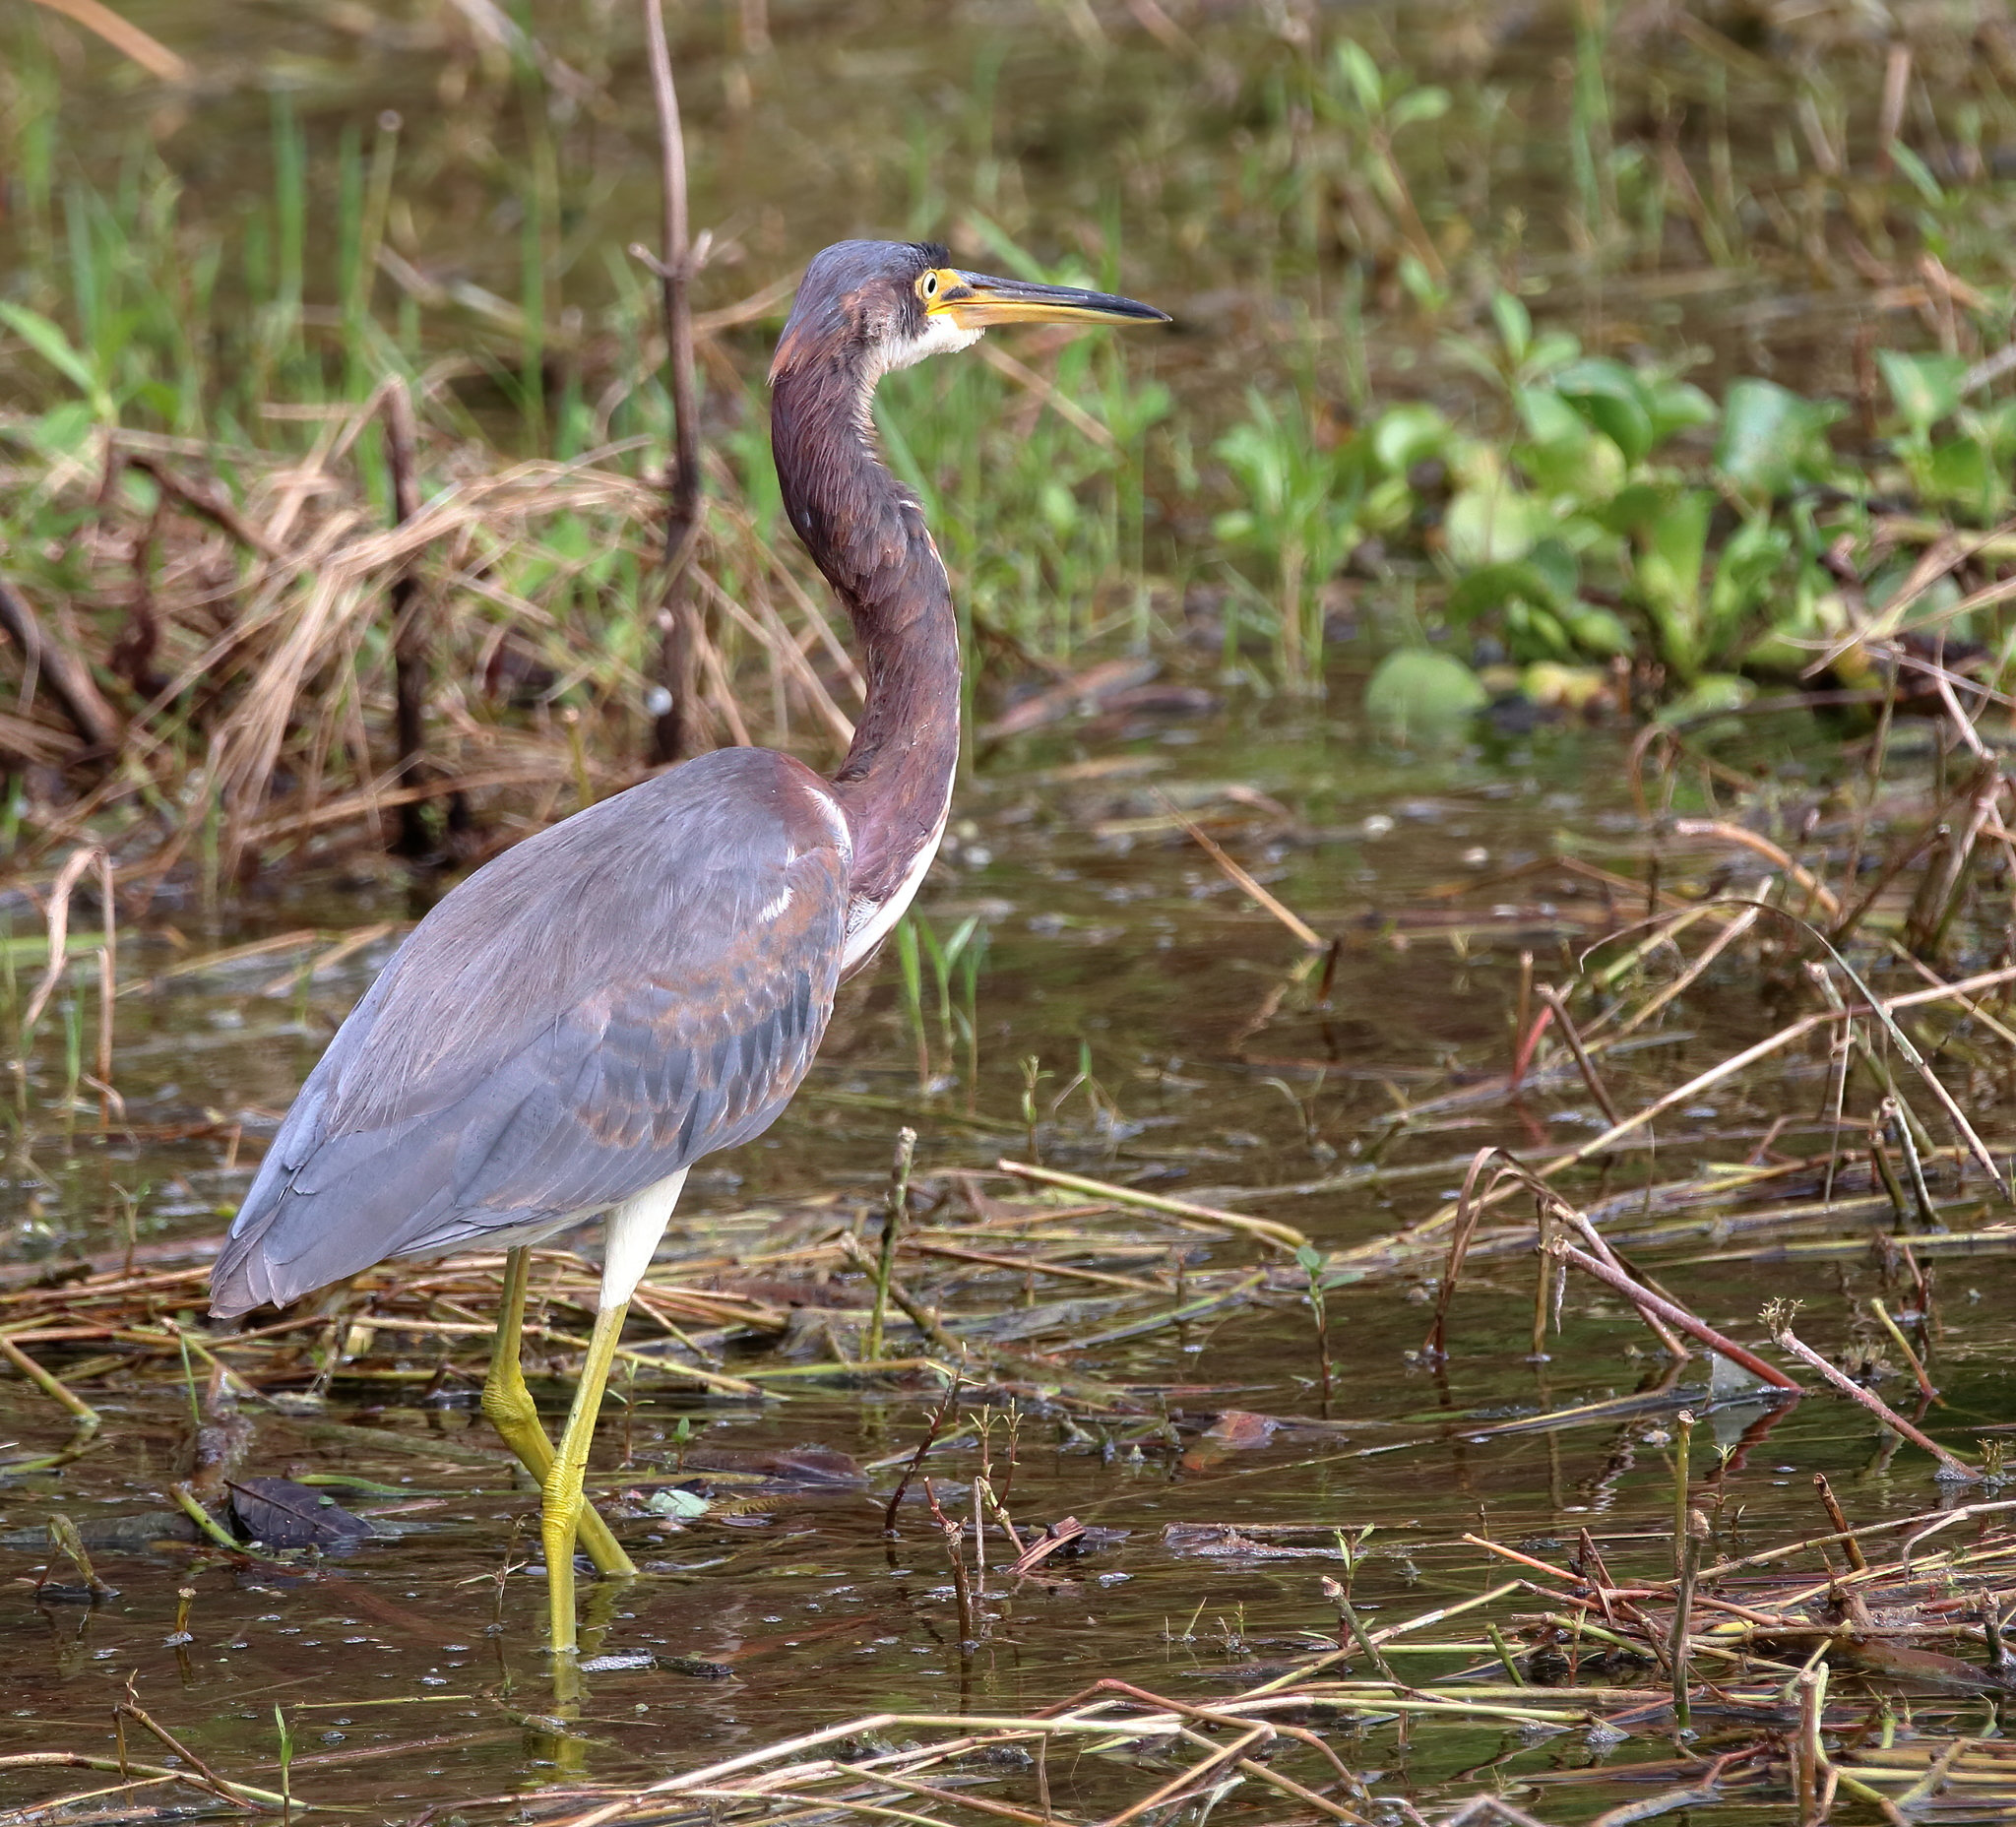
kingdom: Animalia
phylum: Chordata
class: Aves
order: Pelecaniformes
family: Ardeidae
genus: Egretta
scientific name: Egretta tricolor
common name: Tricolored heron
